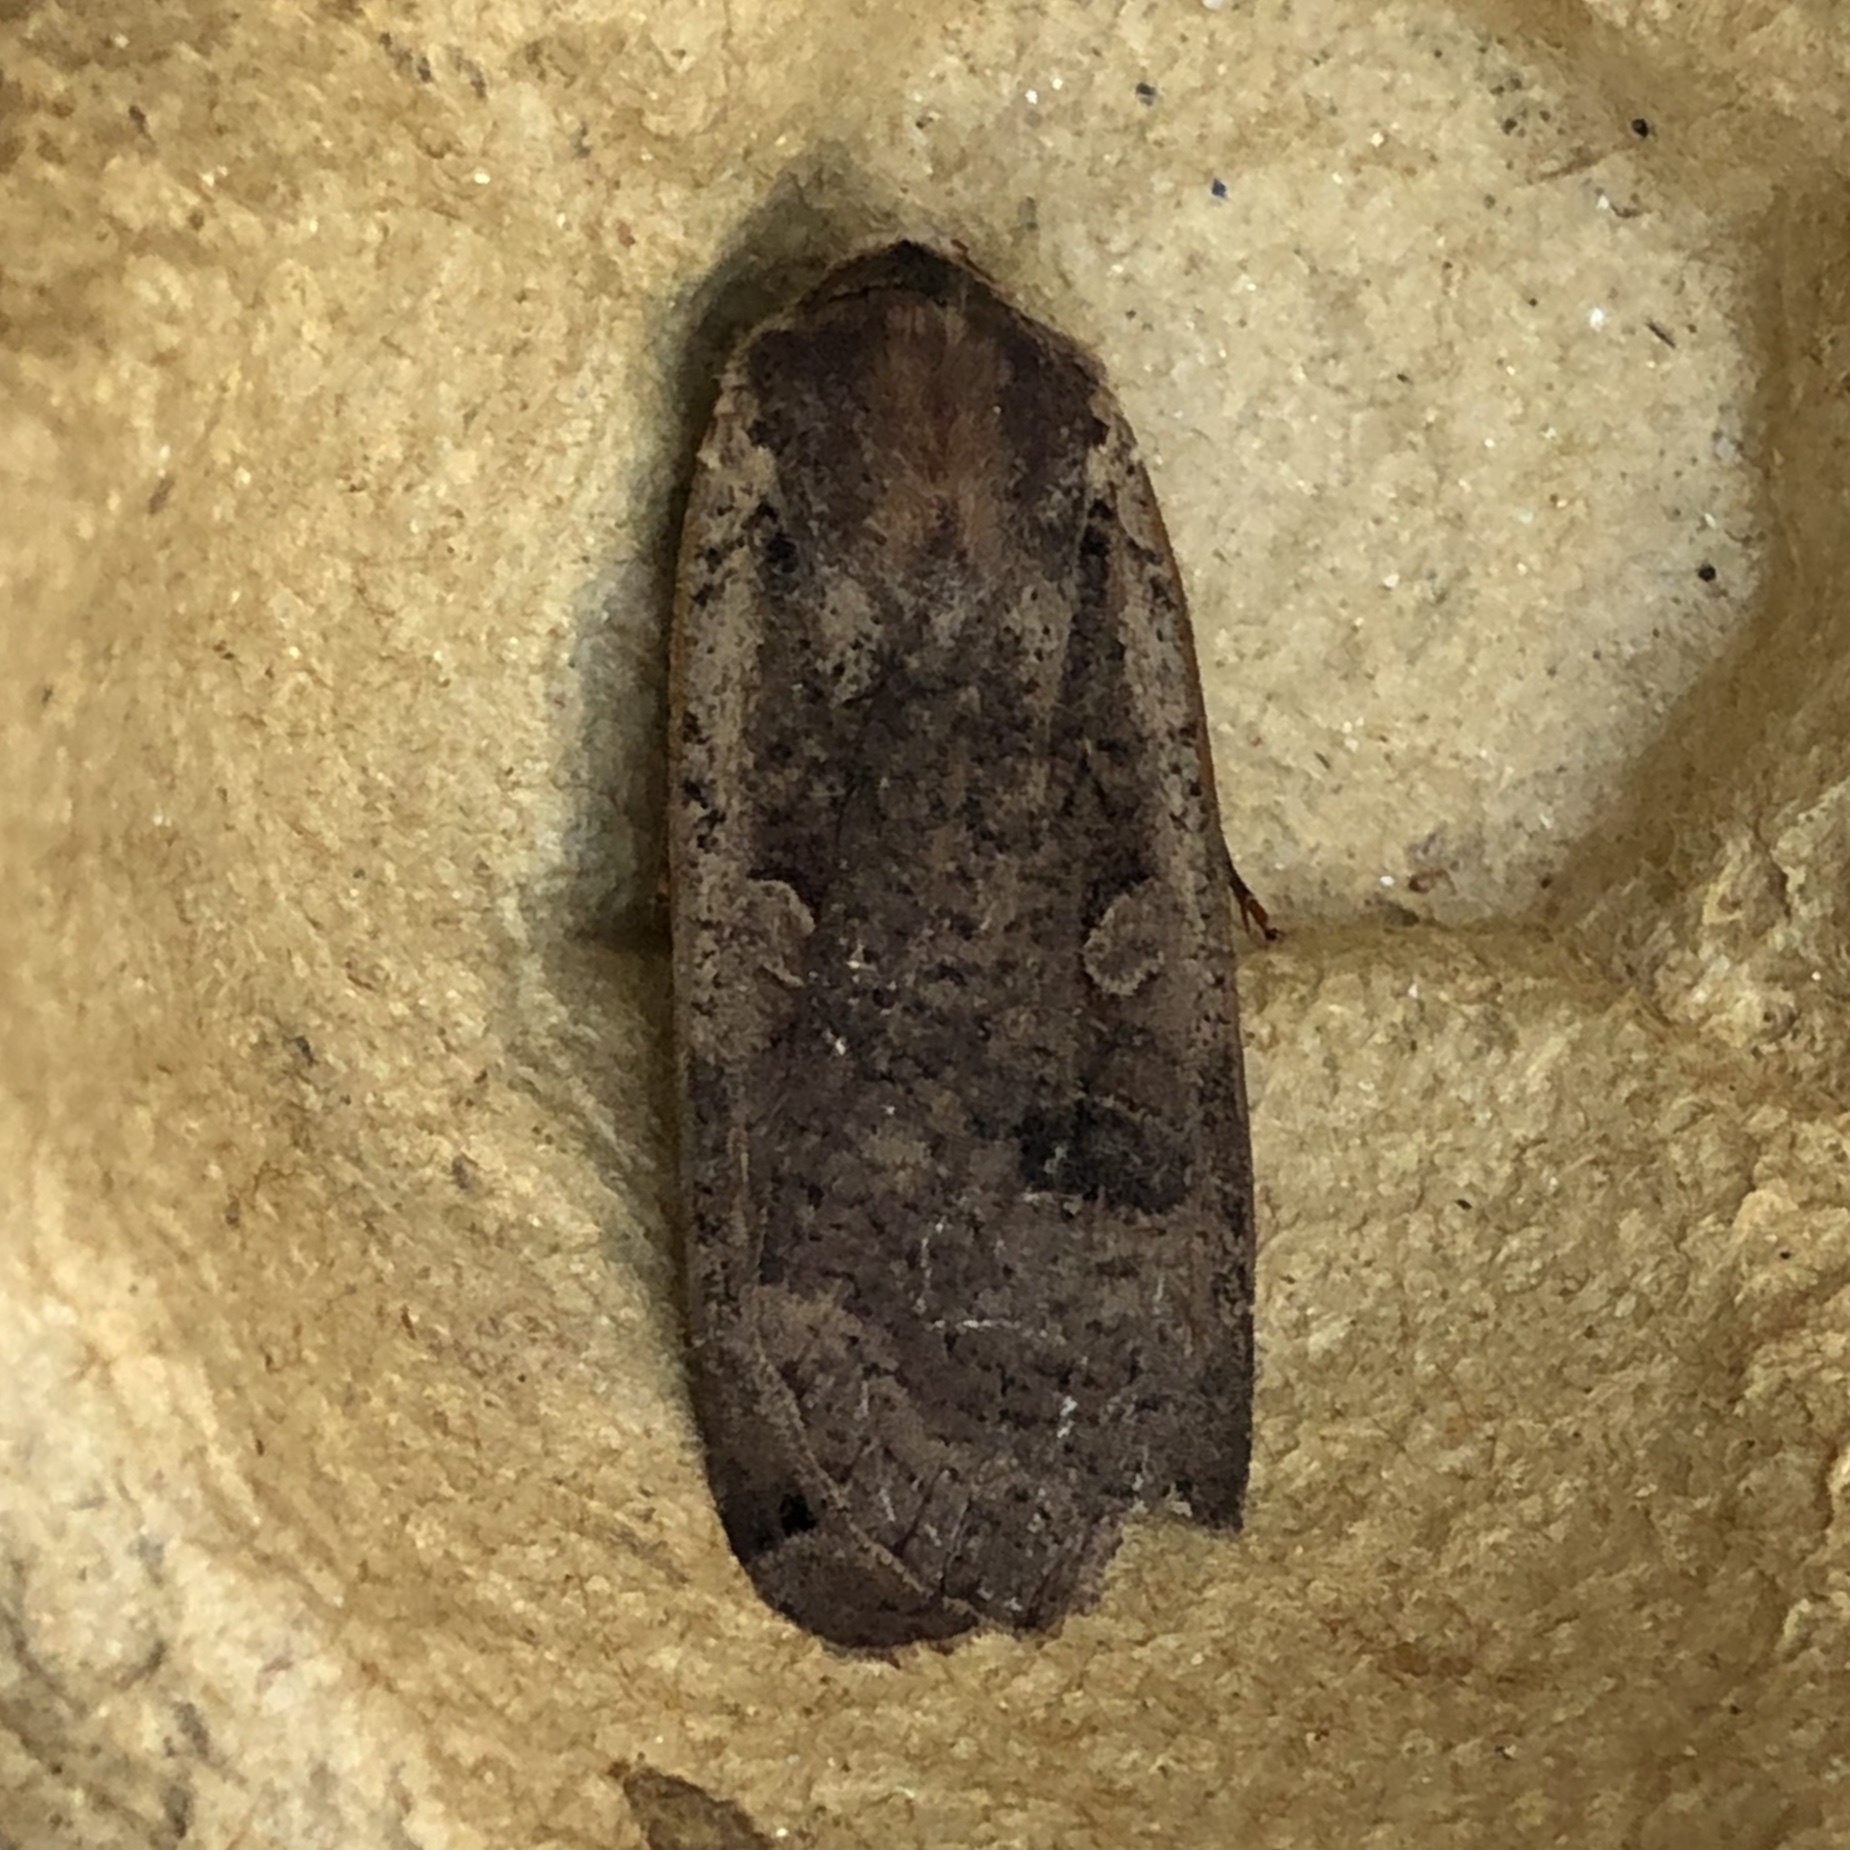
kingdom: Animalia
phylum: Arthropoda
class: Insecta
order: Lepidoptera
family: Noctuidae
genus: Noctua
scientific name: Noctua pronuba
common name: Large yellow underwing
